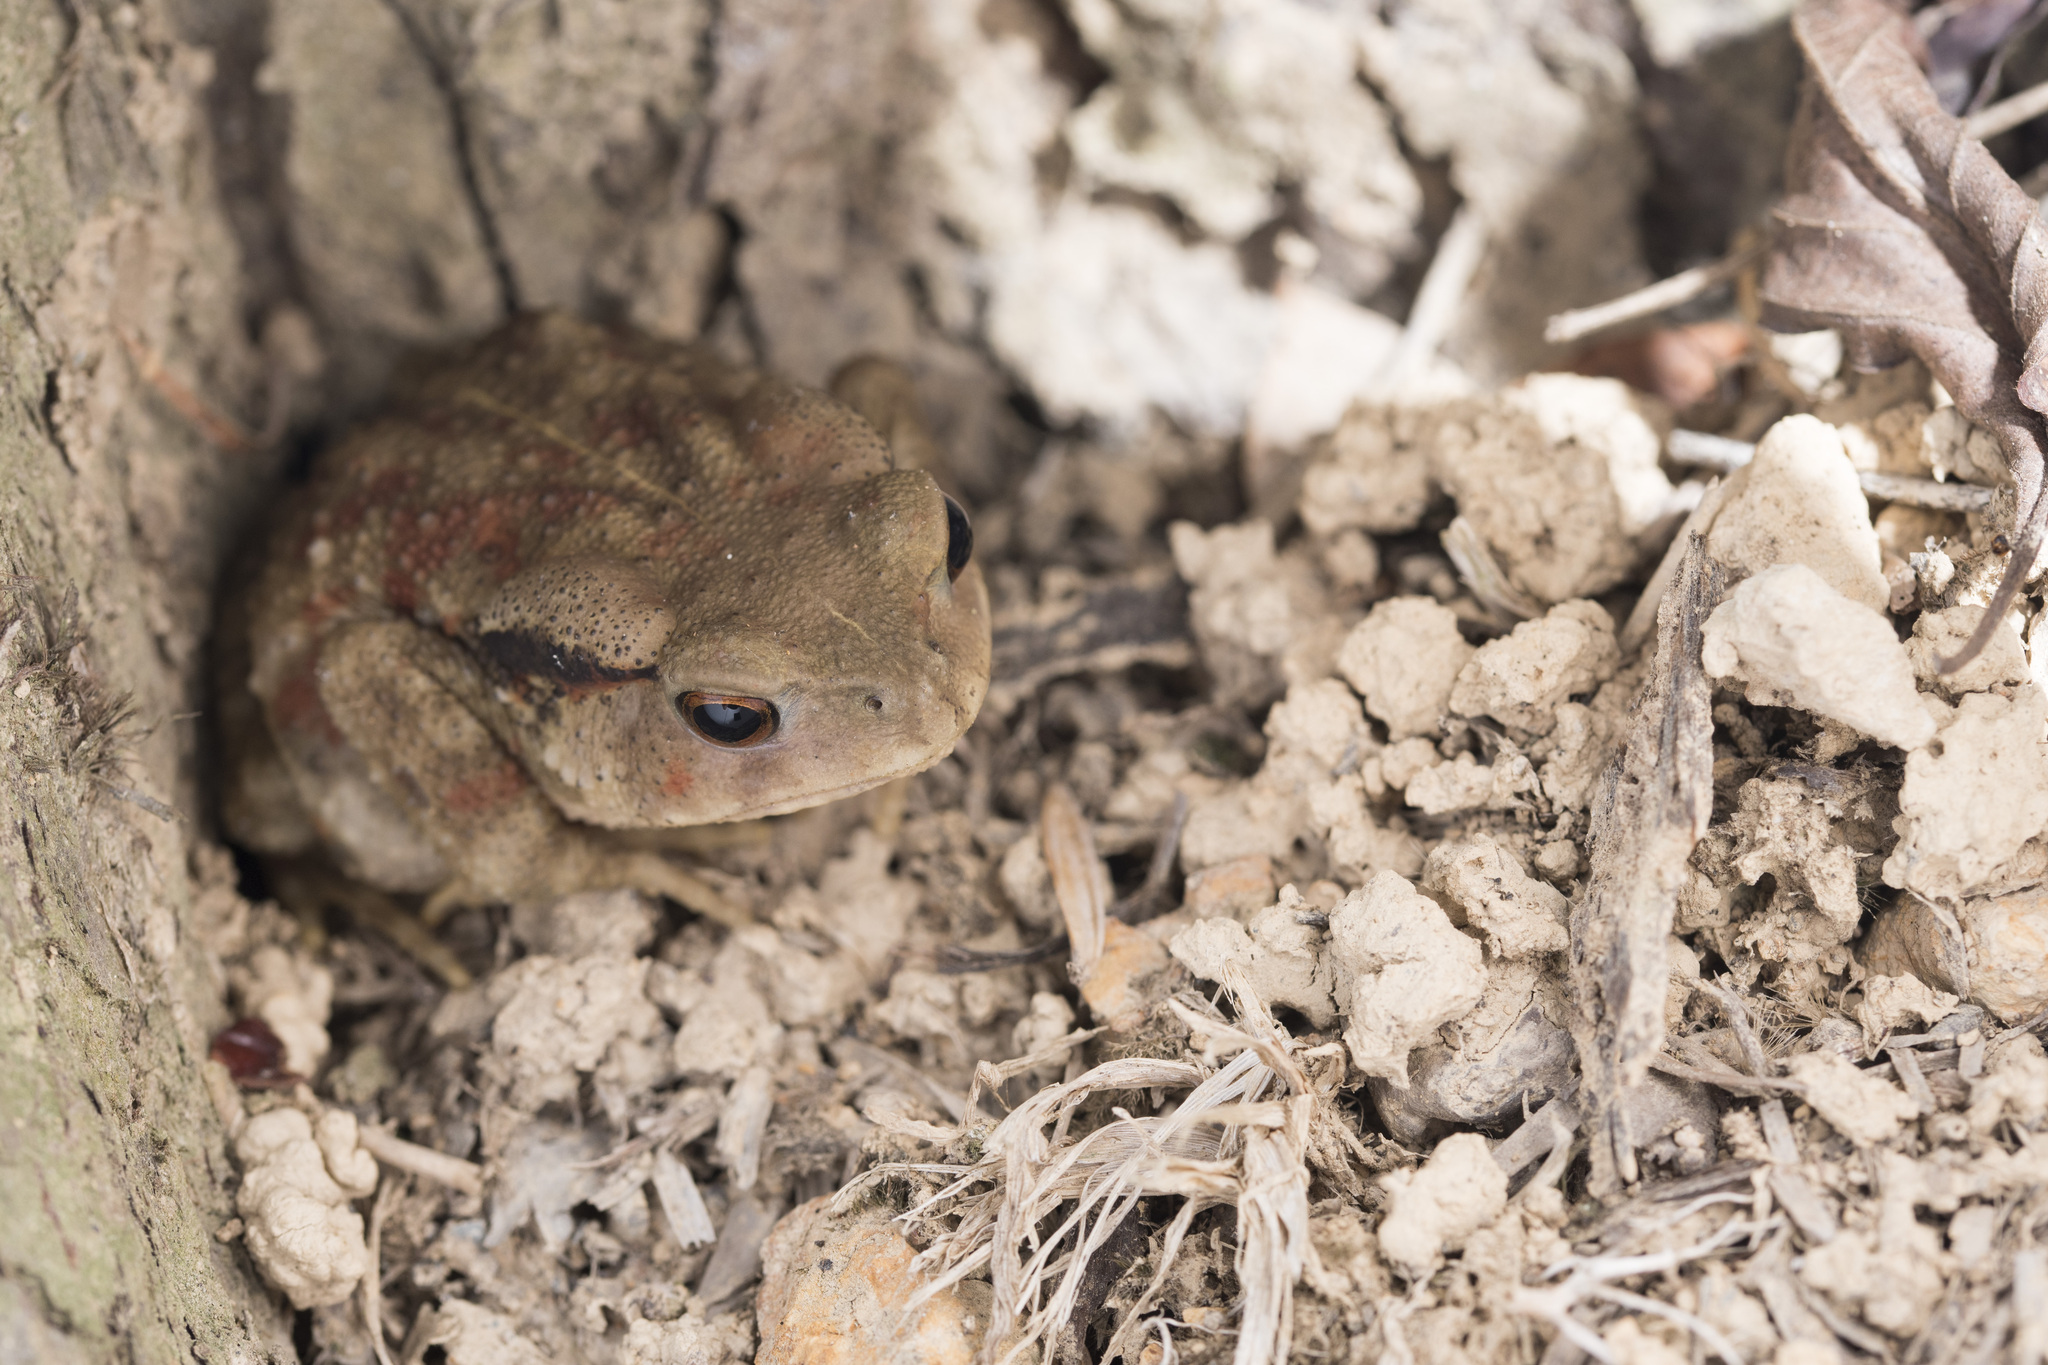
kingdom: Animalia
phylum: Chordata
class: Amphibia
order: Anura
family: Bufonidae
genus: Bufo
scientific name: Bufo bankorensis
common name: Bankor toad
